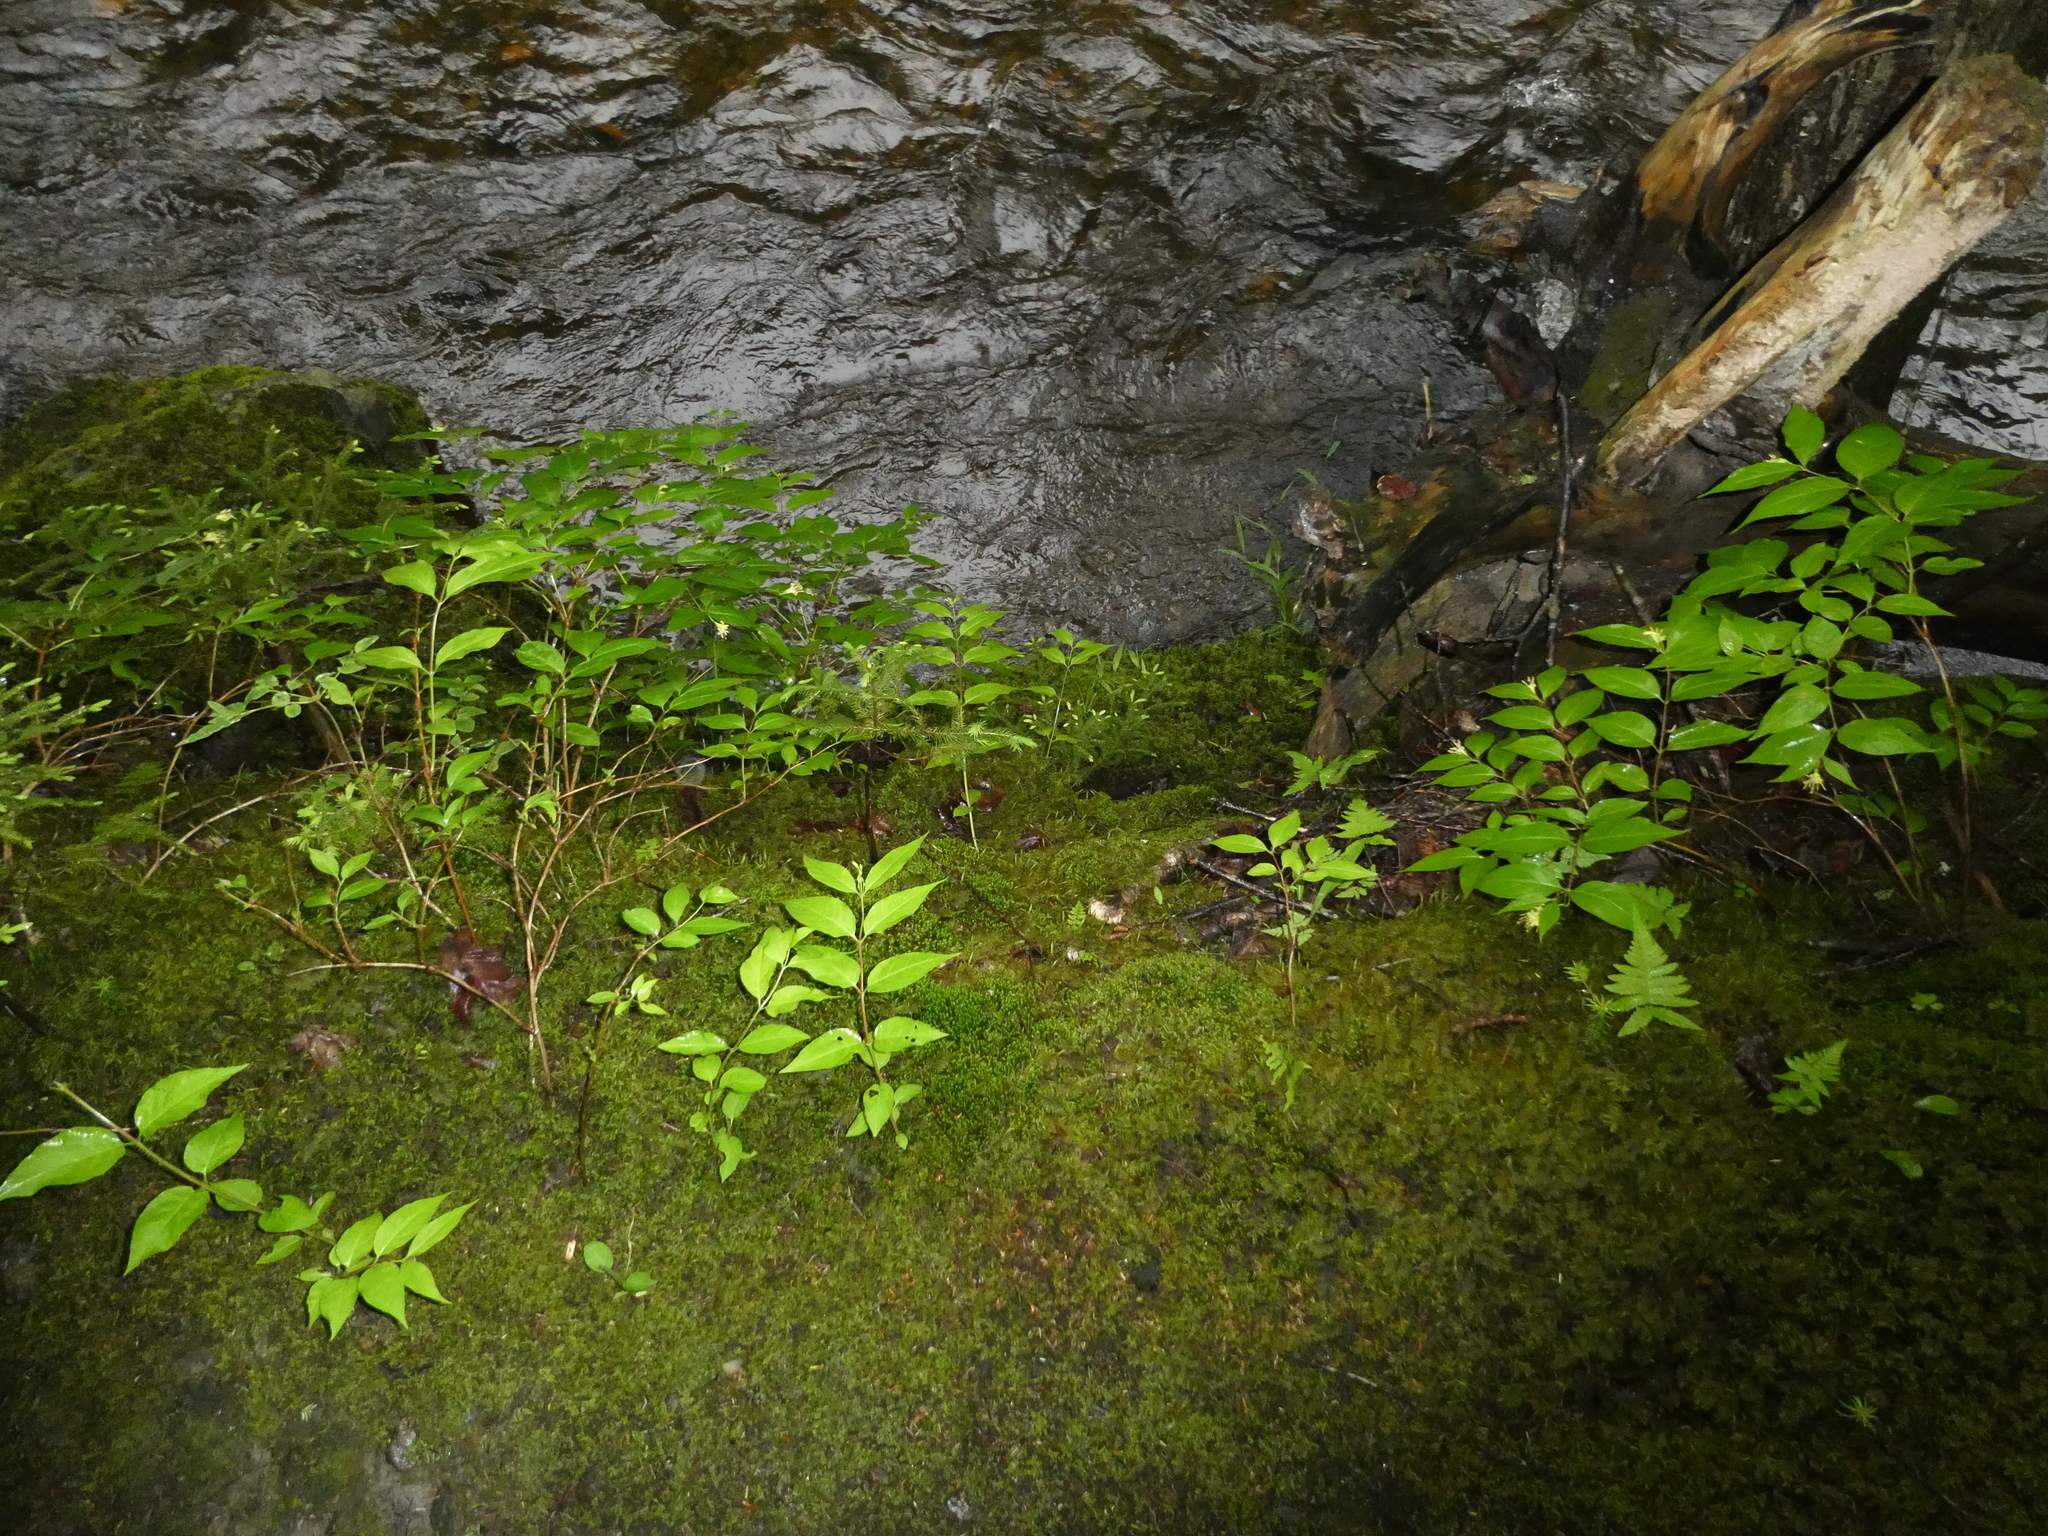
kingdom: Plantae
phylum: Tracheophyta
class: Magnoliopsida
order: Dipsacales
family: Caprifoliaceae
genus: Diervilla
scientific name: Diervilla lonicera
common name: Bush-honeysuckle
